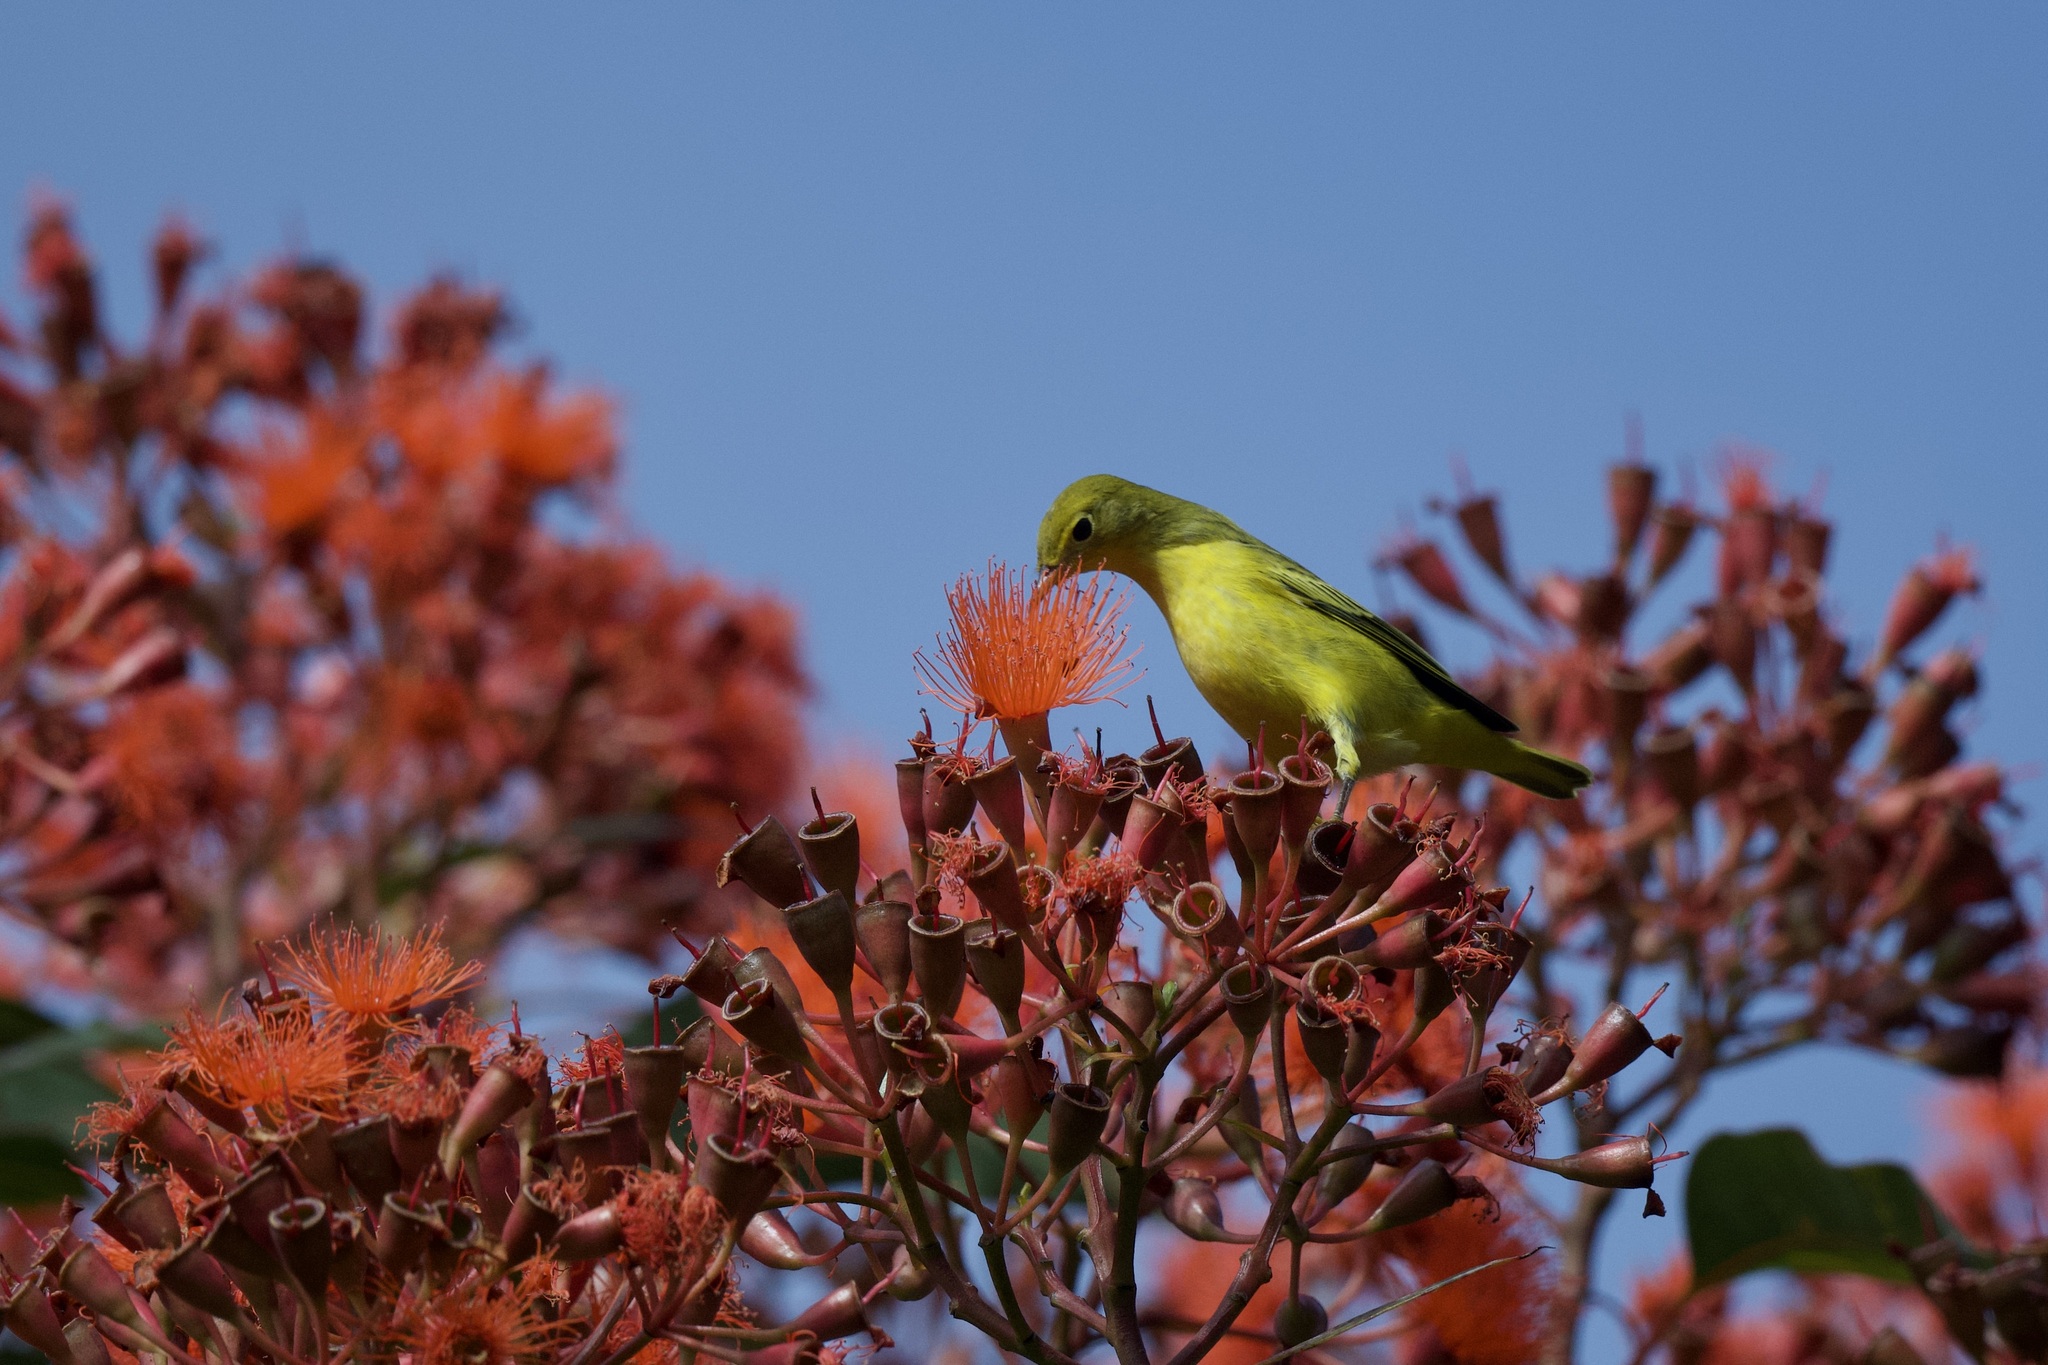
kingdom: Animalia
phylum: Chordata
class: Aves
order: Passeriformes
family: Parulidae
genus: Setophaga
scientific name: Setophaga petechia
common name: Yellow warbler
